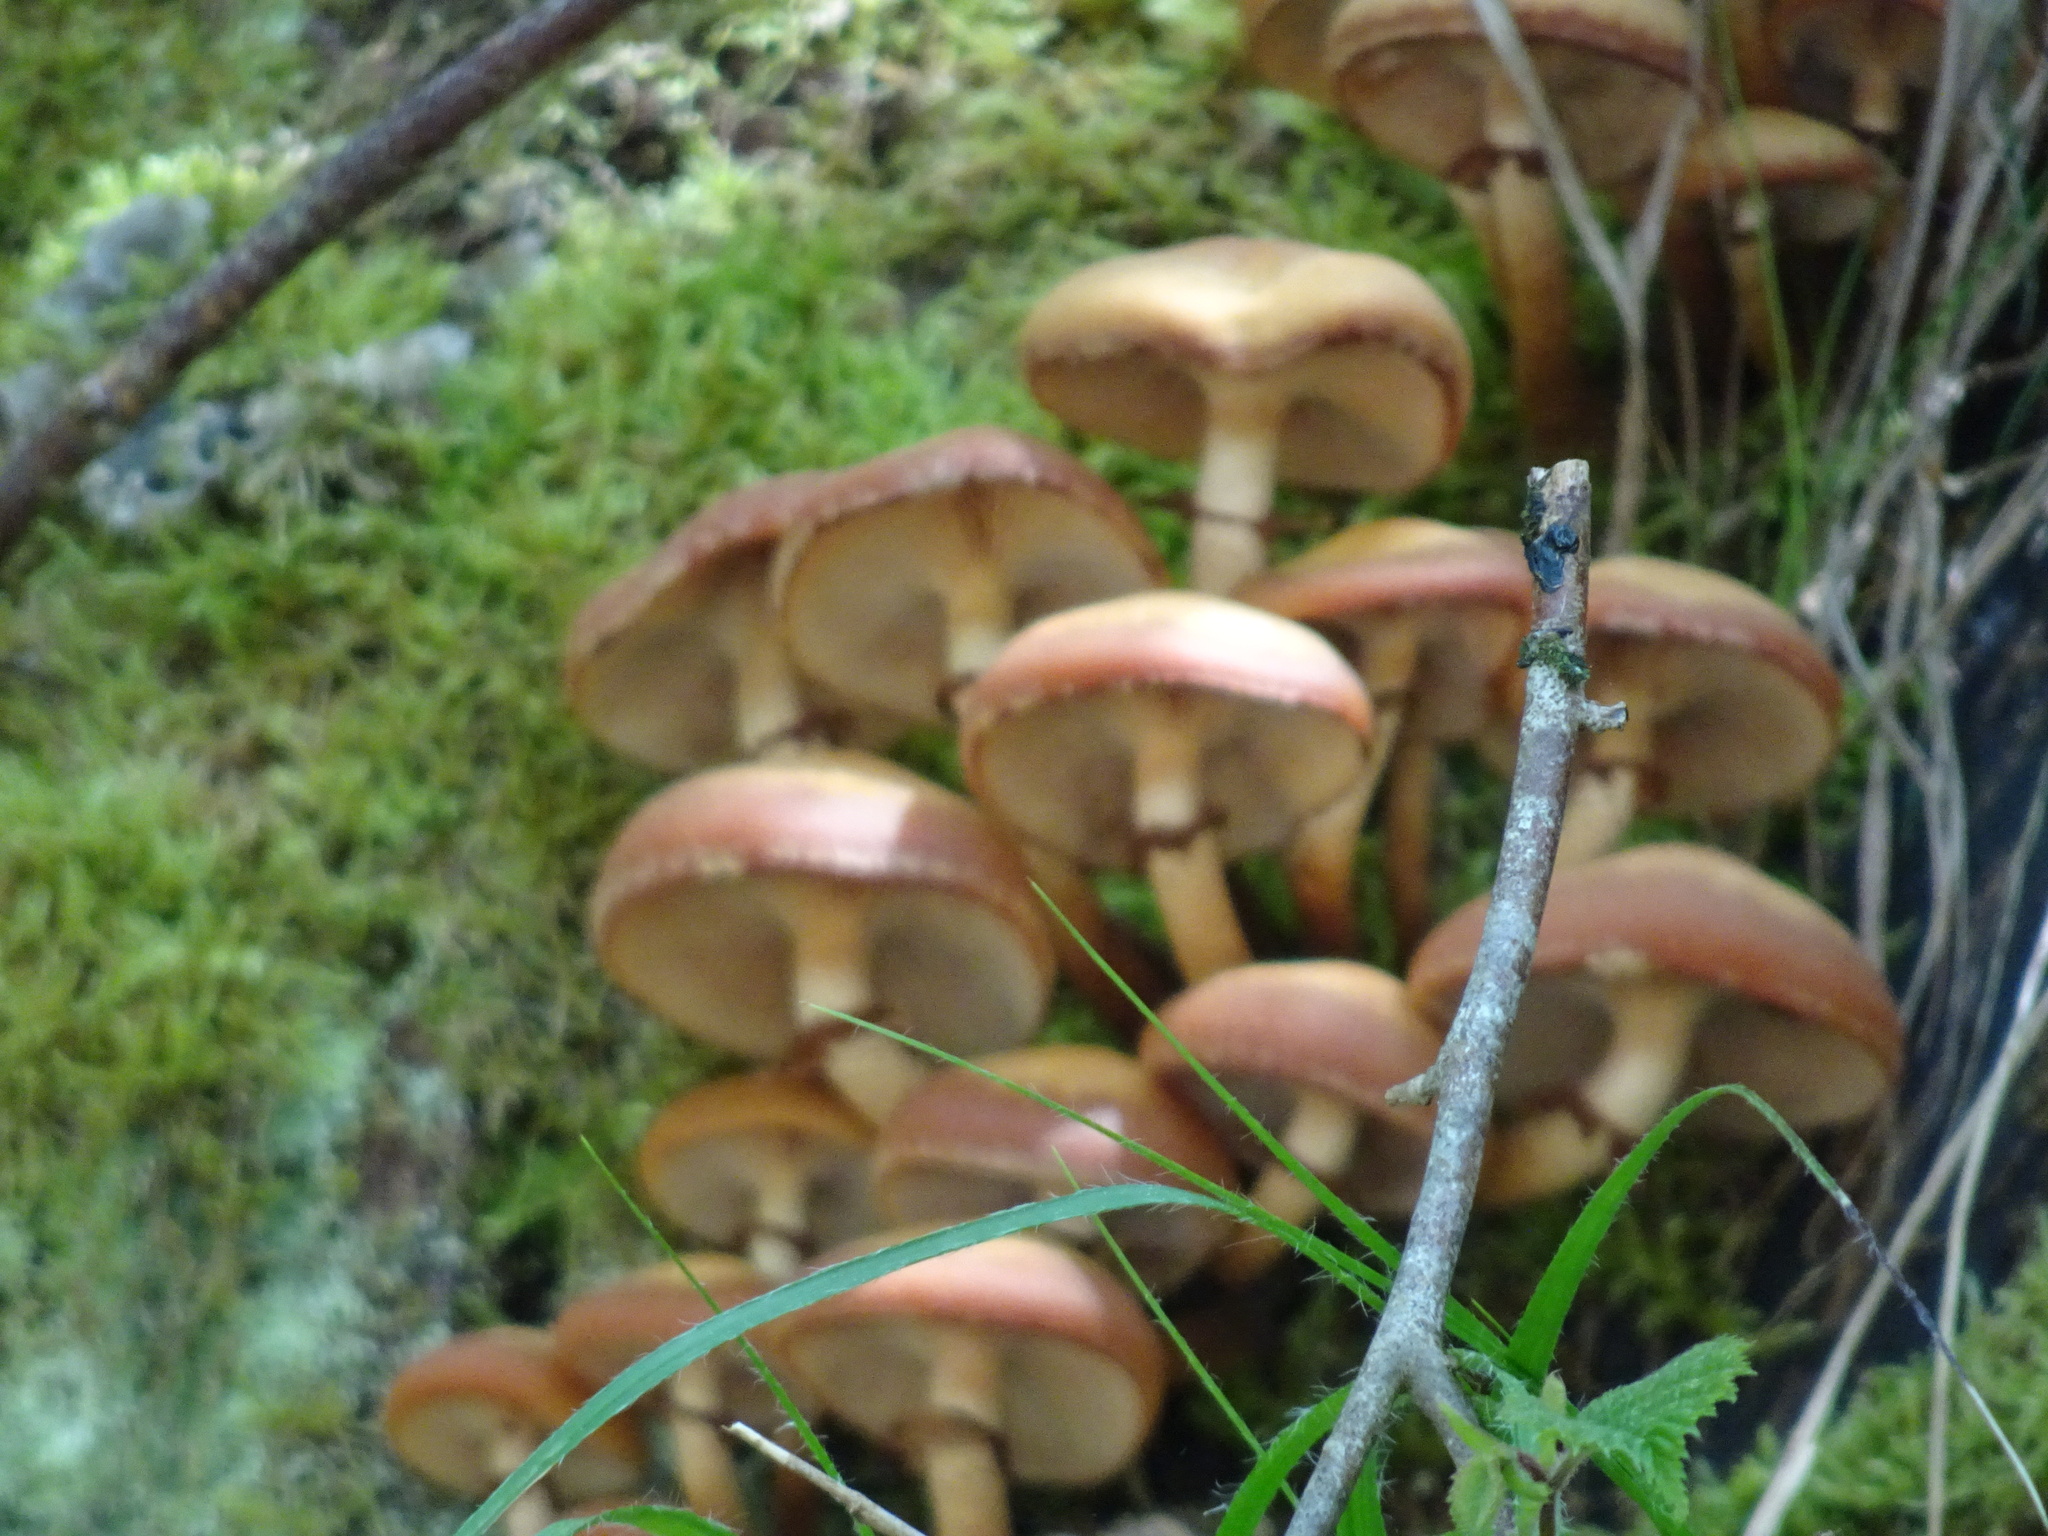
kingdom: Fungi
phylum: Basidiomycota
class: Agaricomycetes
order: Agaricales
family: Strophariaceae
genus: Kuehneromyces
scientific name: Kuehneromyces mutabilis
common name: Sheathed woodtuft
